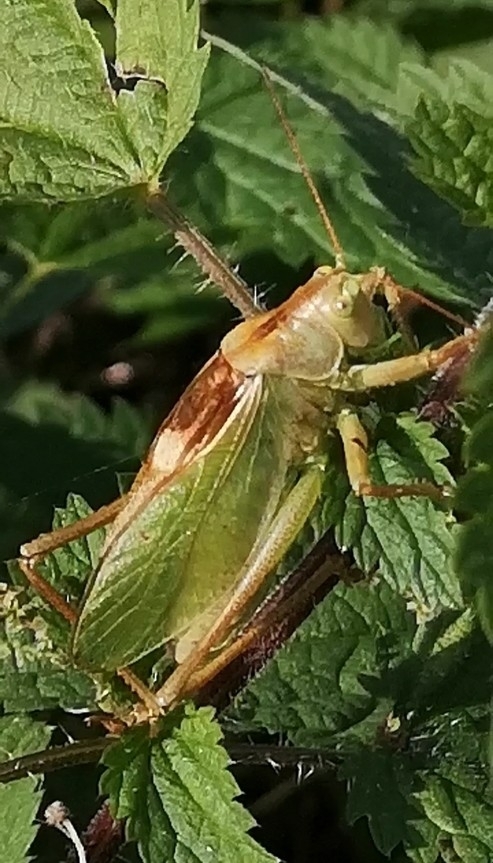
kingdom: Animalia
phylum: Arthropoda
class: Insecta
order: Orthoptera
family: Tettigoniidae
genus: Tettigonia
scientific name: Tettigonia cantans
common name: Upland green bush-cricket
